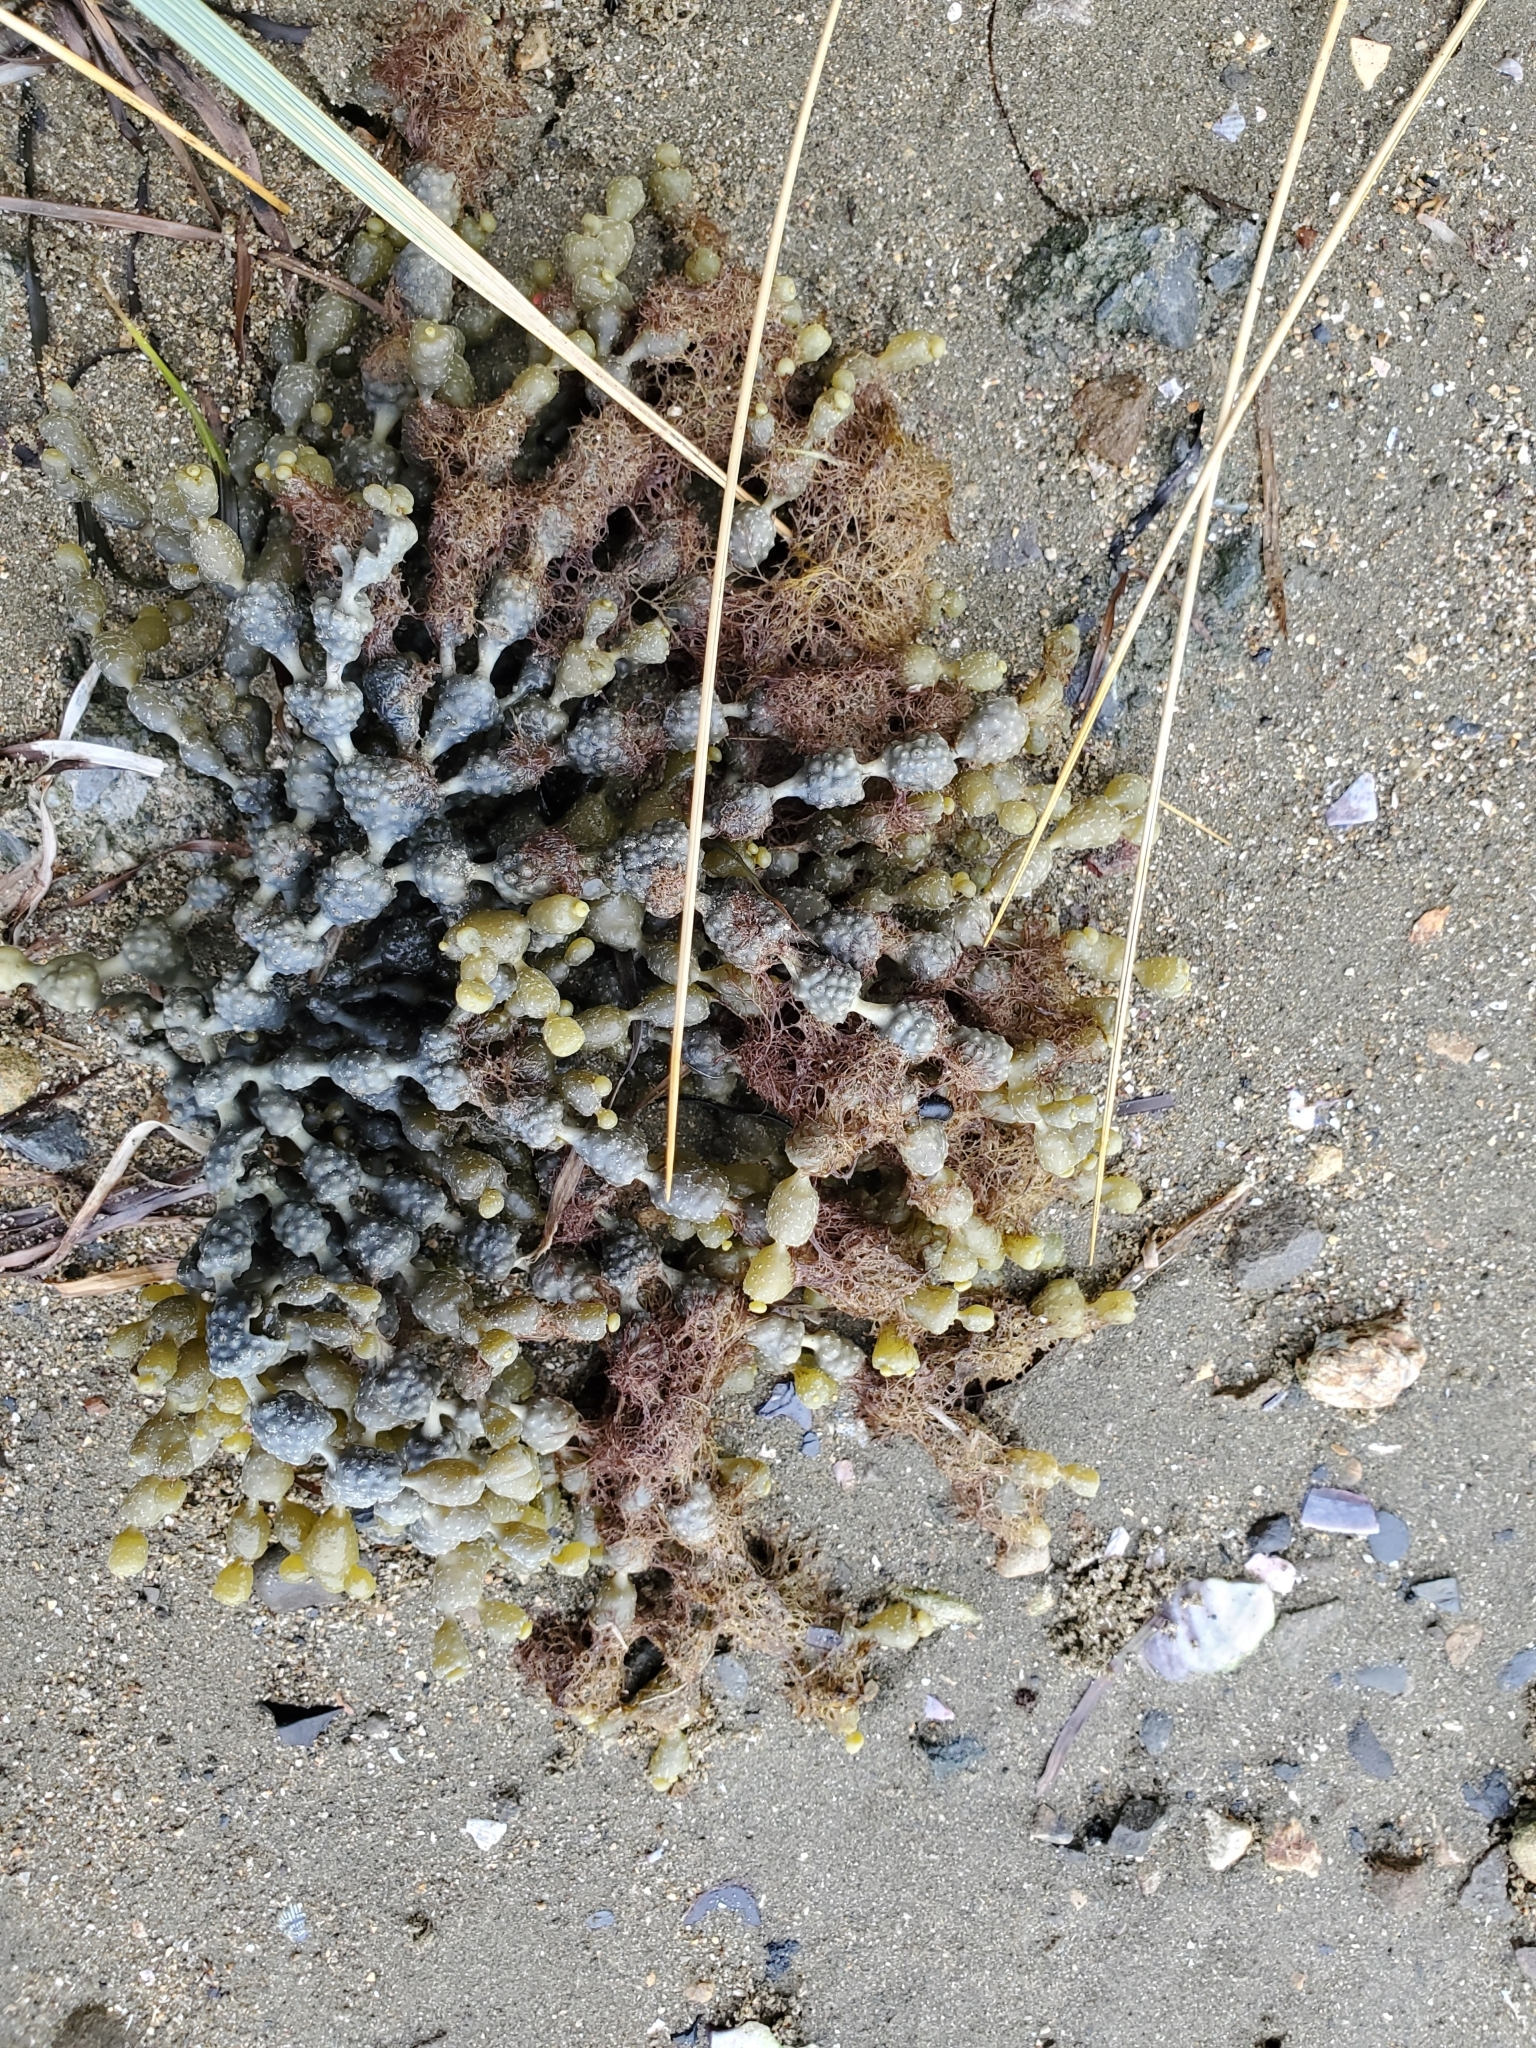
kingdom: Chromista
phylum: Ochrophyta
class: Phaeophyceae
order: Fucales
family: Hormosiraceae
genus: Hormosira
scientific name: Hormosira banksii
